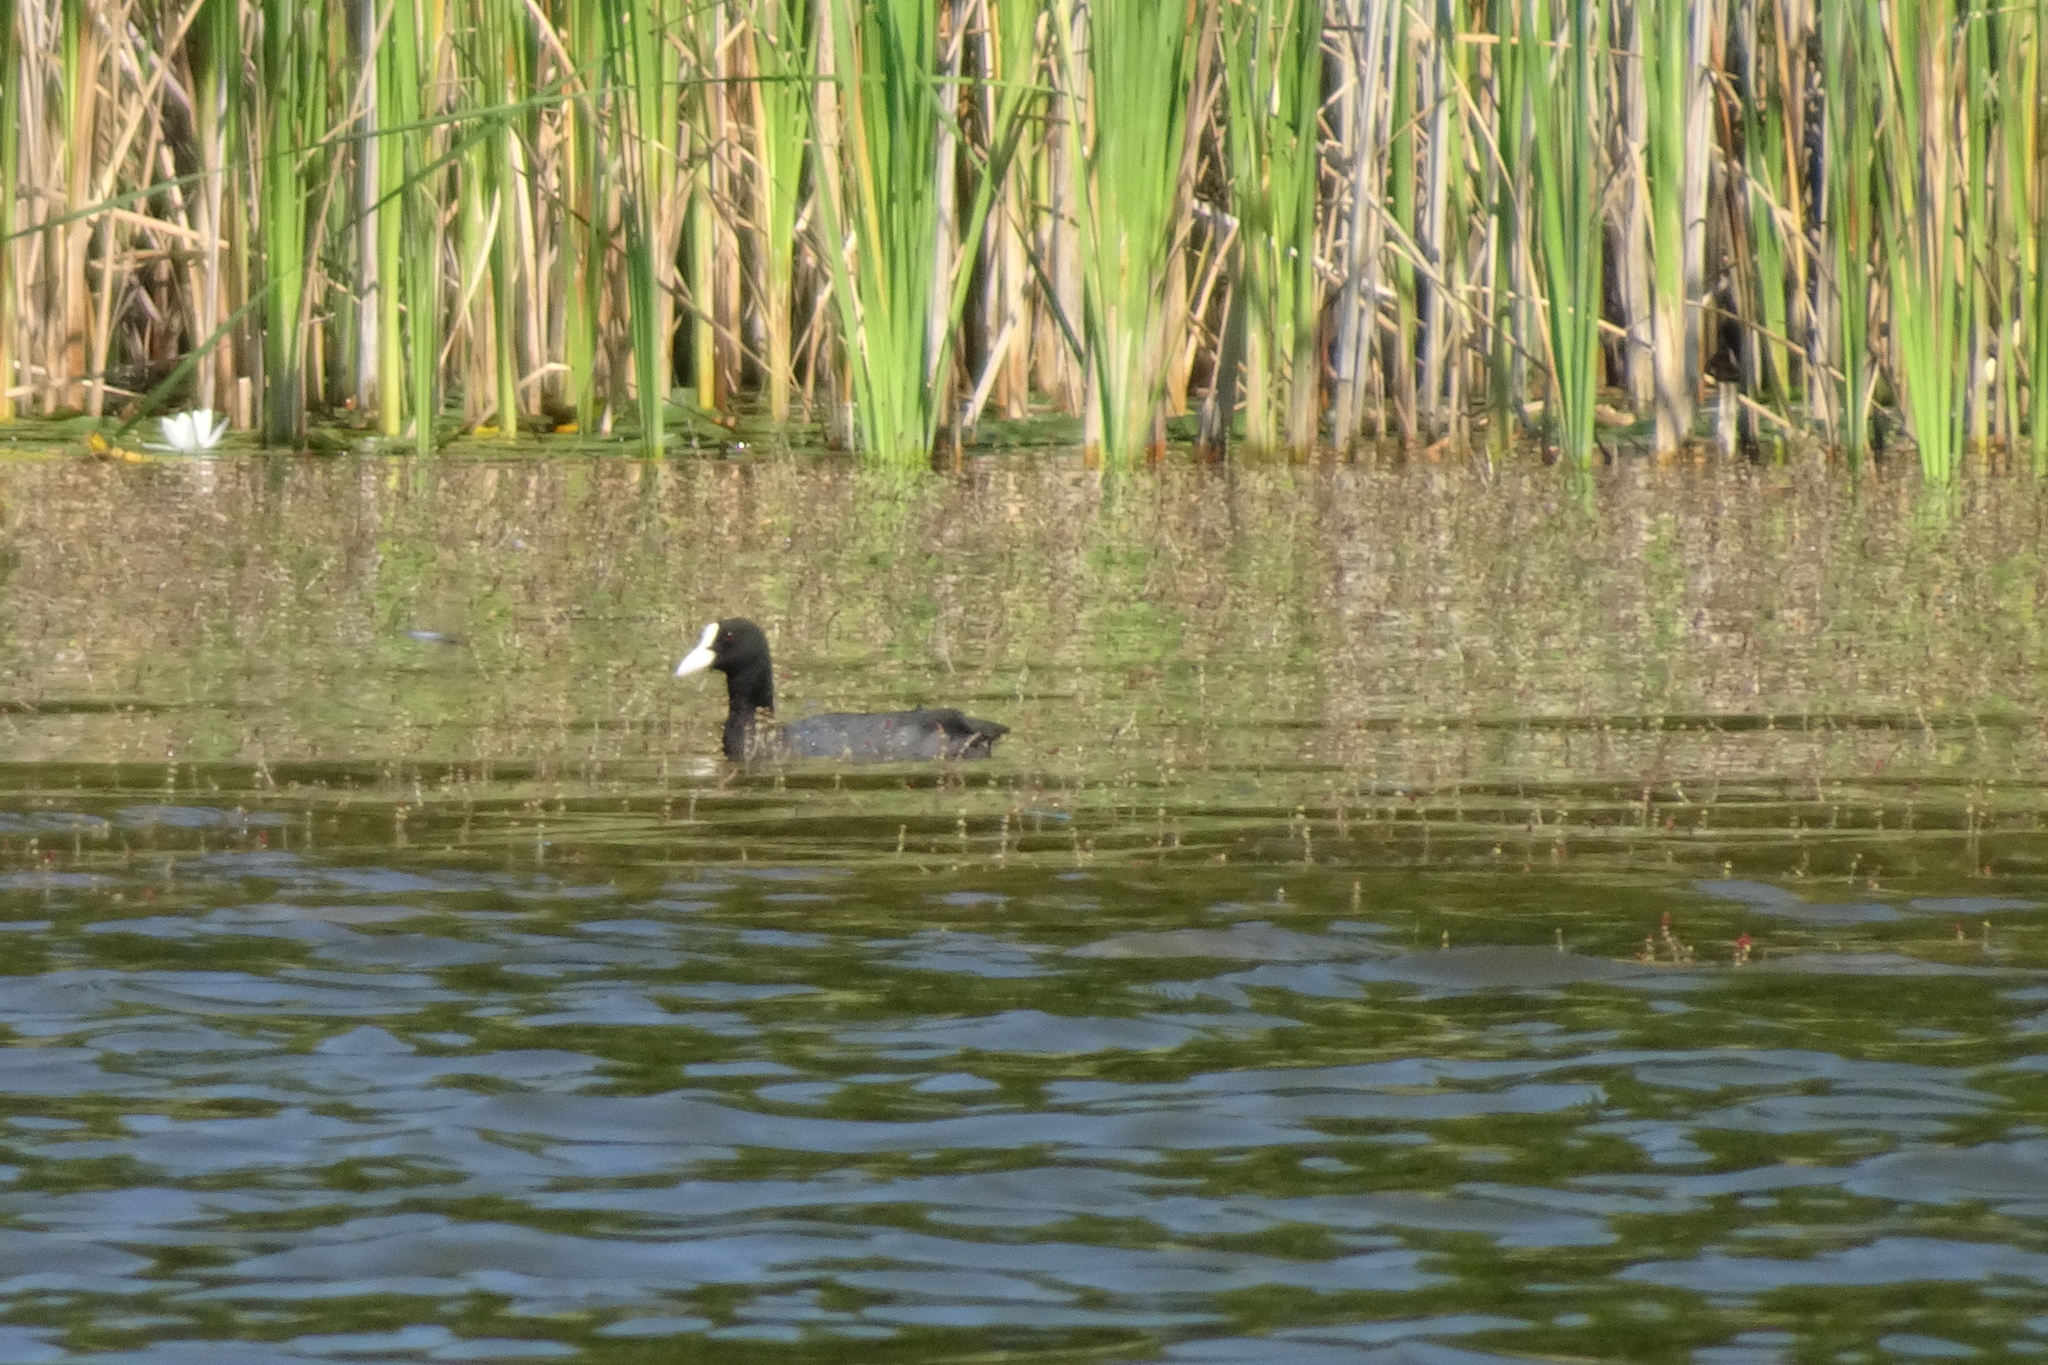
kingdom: Animalia
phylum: Chordata
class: Aves
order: Gruiformes
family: Rallidae
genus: Fulica
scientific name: Fulica atra
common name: Eurasian coot
